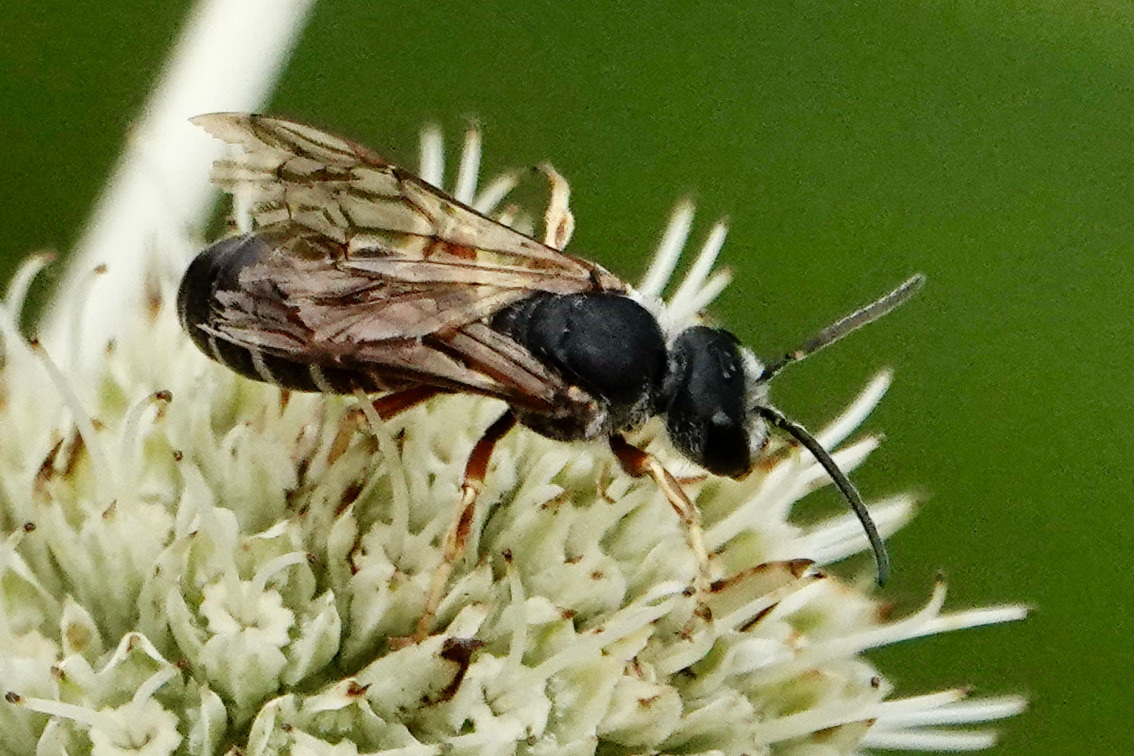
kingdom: Animalia
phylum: Arthropoda
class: Insecta
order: Hymenoptera
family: Halictidae
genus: Halictus
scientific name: Halictus parallelus
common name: Parallel-striped sweat bee
